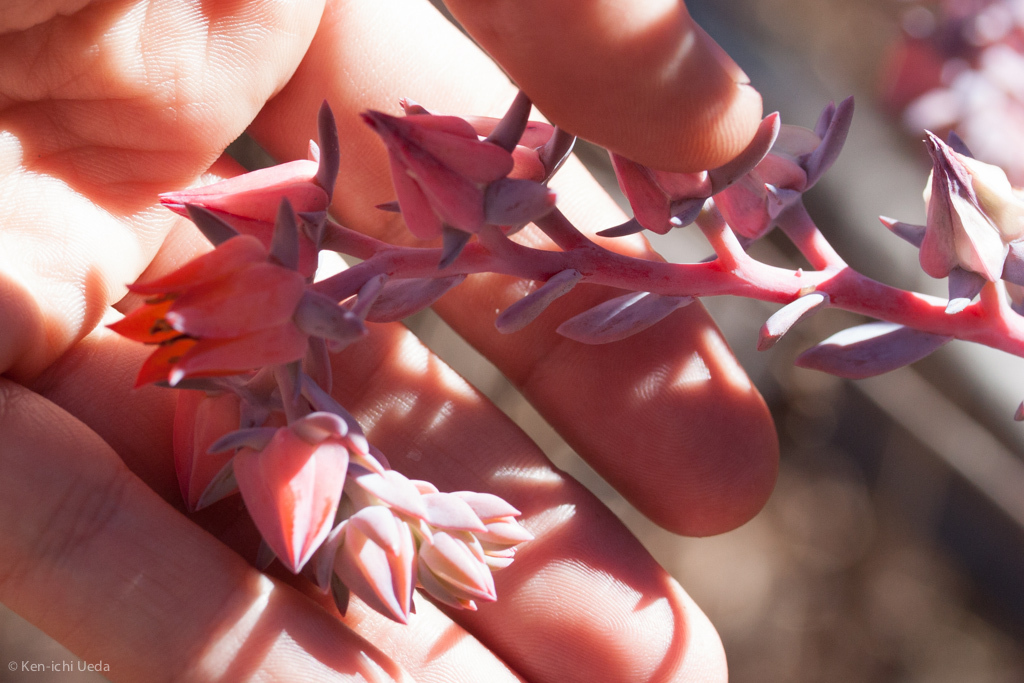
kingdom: Plantae
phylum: Tracheophyta
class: Magnoliopsida
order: Saxifragales
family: Crassulaceae
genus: Echeveria
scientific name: Echeveria gibbiflora
